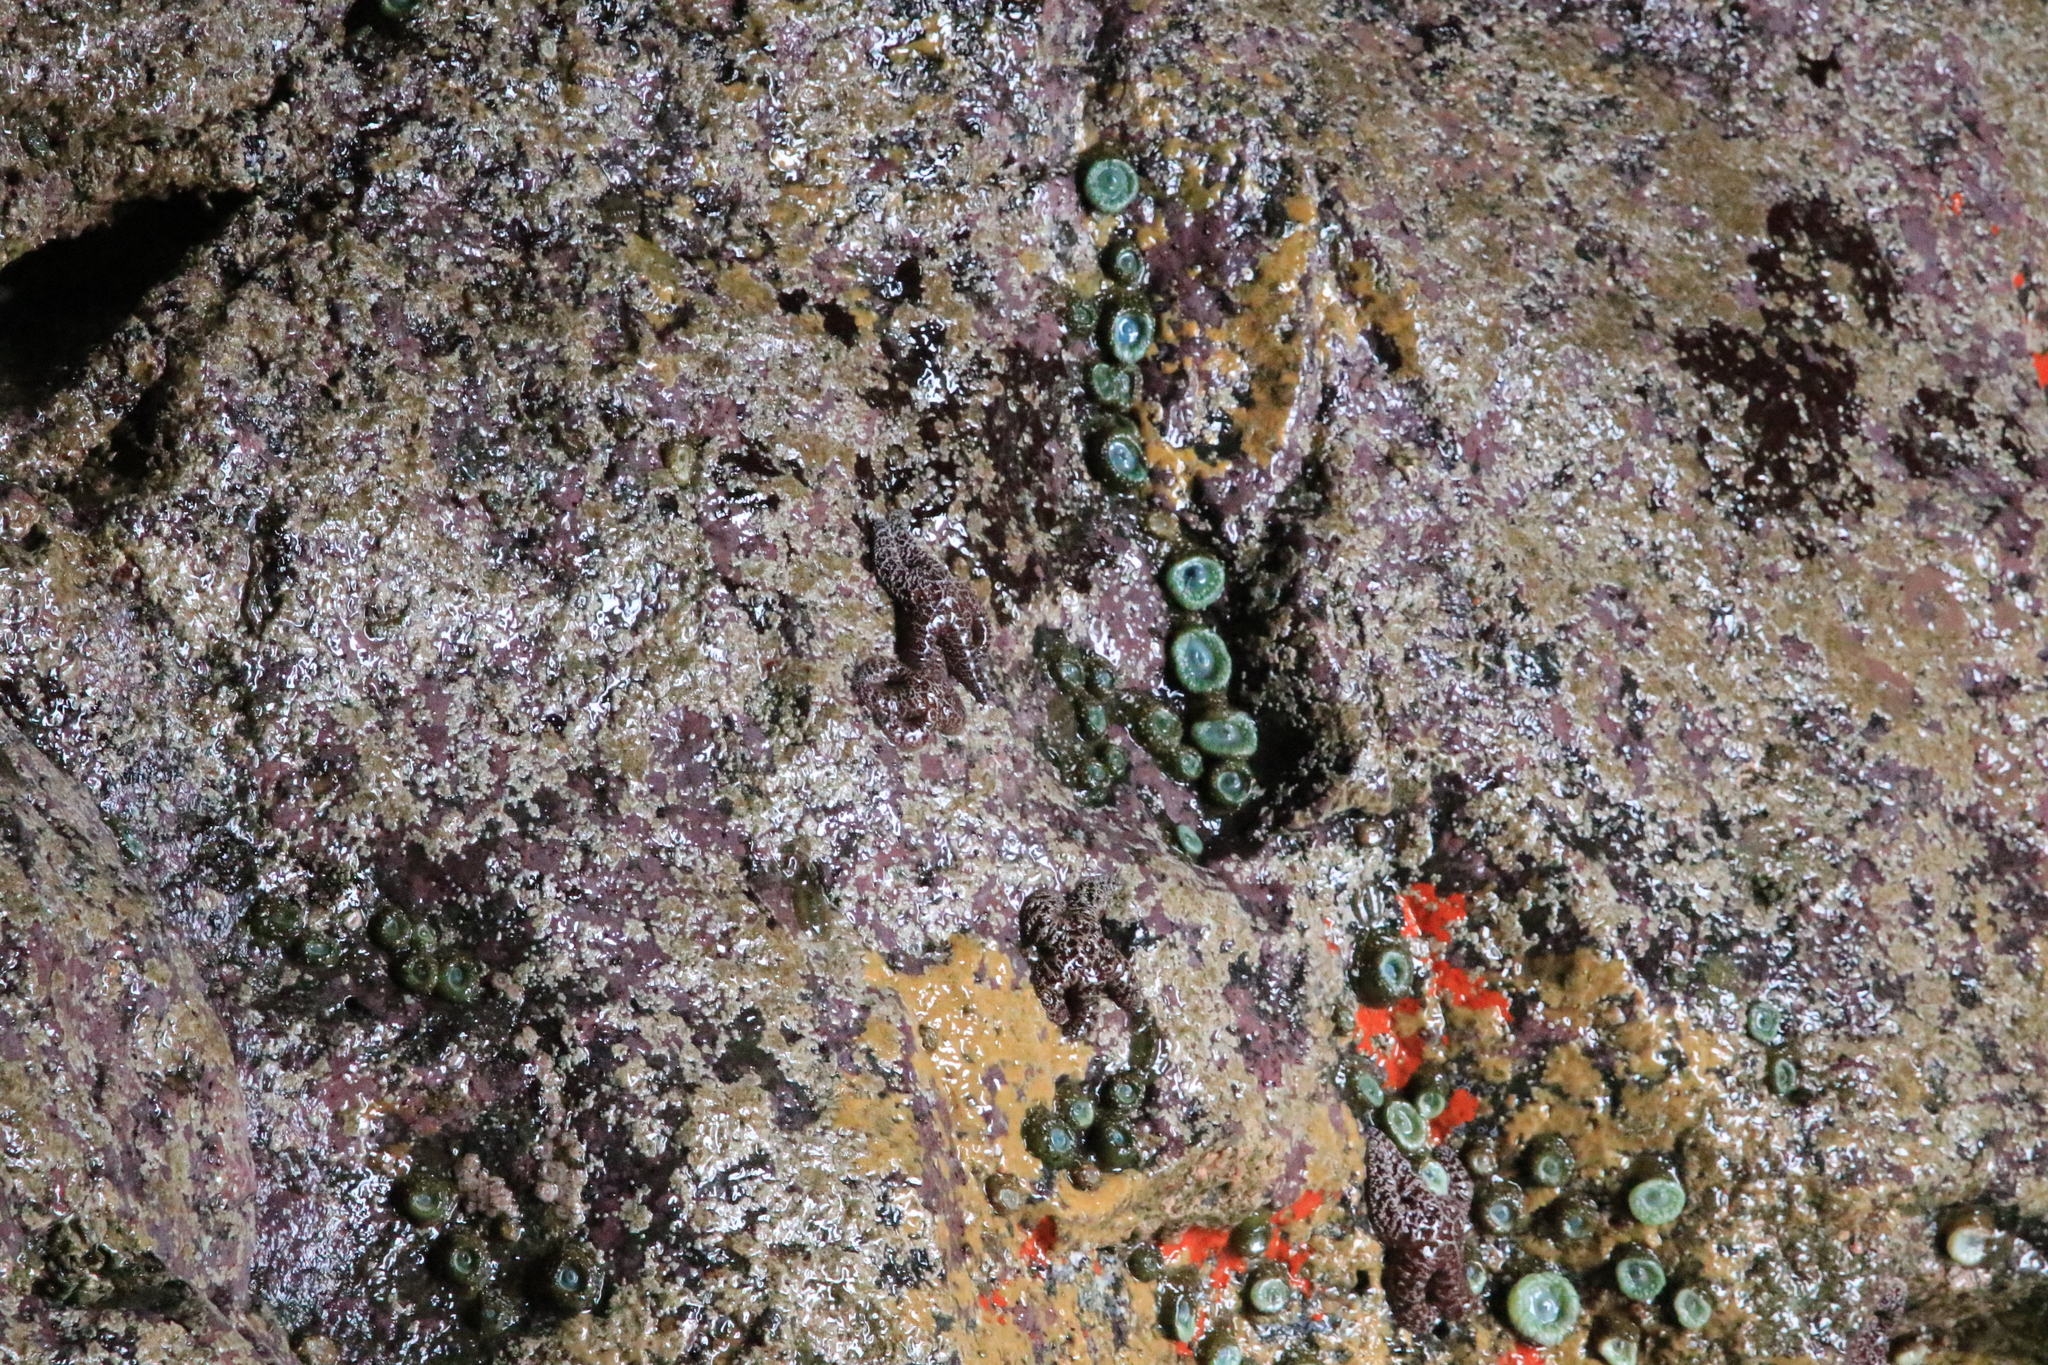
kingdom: Animalia
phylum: Cnidaria
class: Anthozoa
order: Actiniaria
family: Actiniidae
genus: Anthopleura
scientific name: Anthopleura xanthogrammica
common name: Giant green anemone
